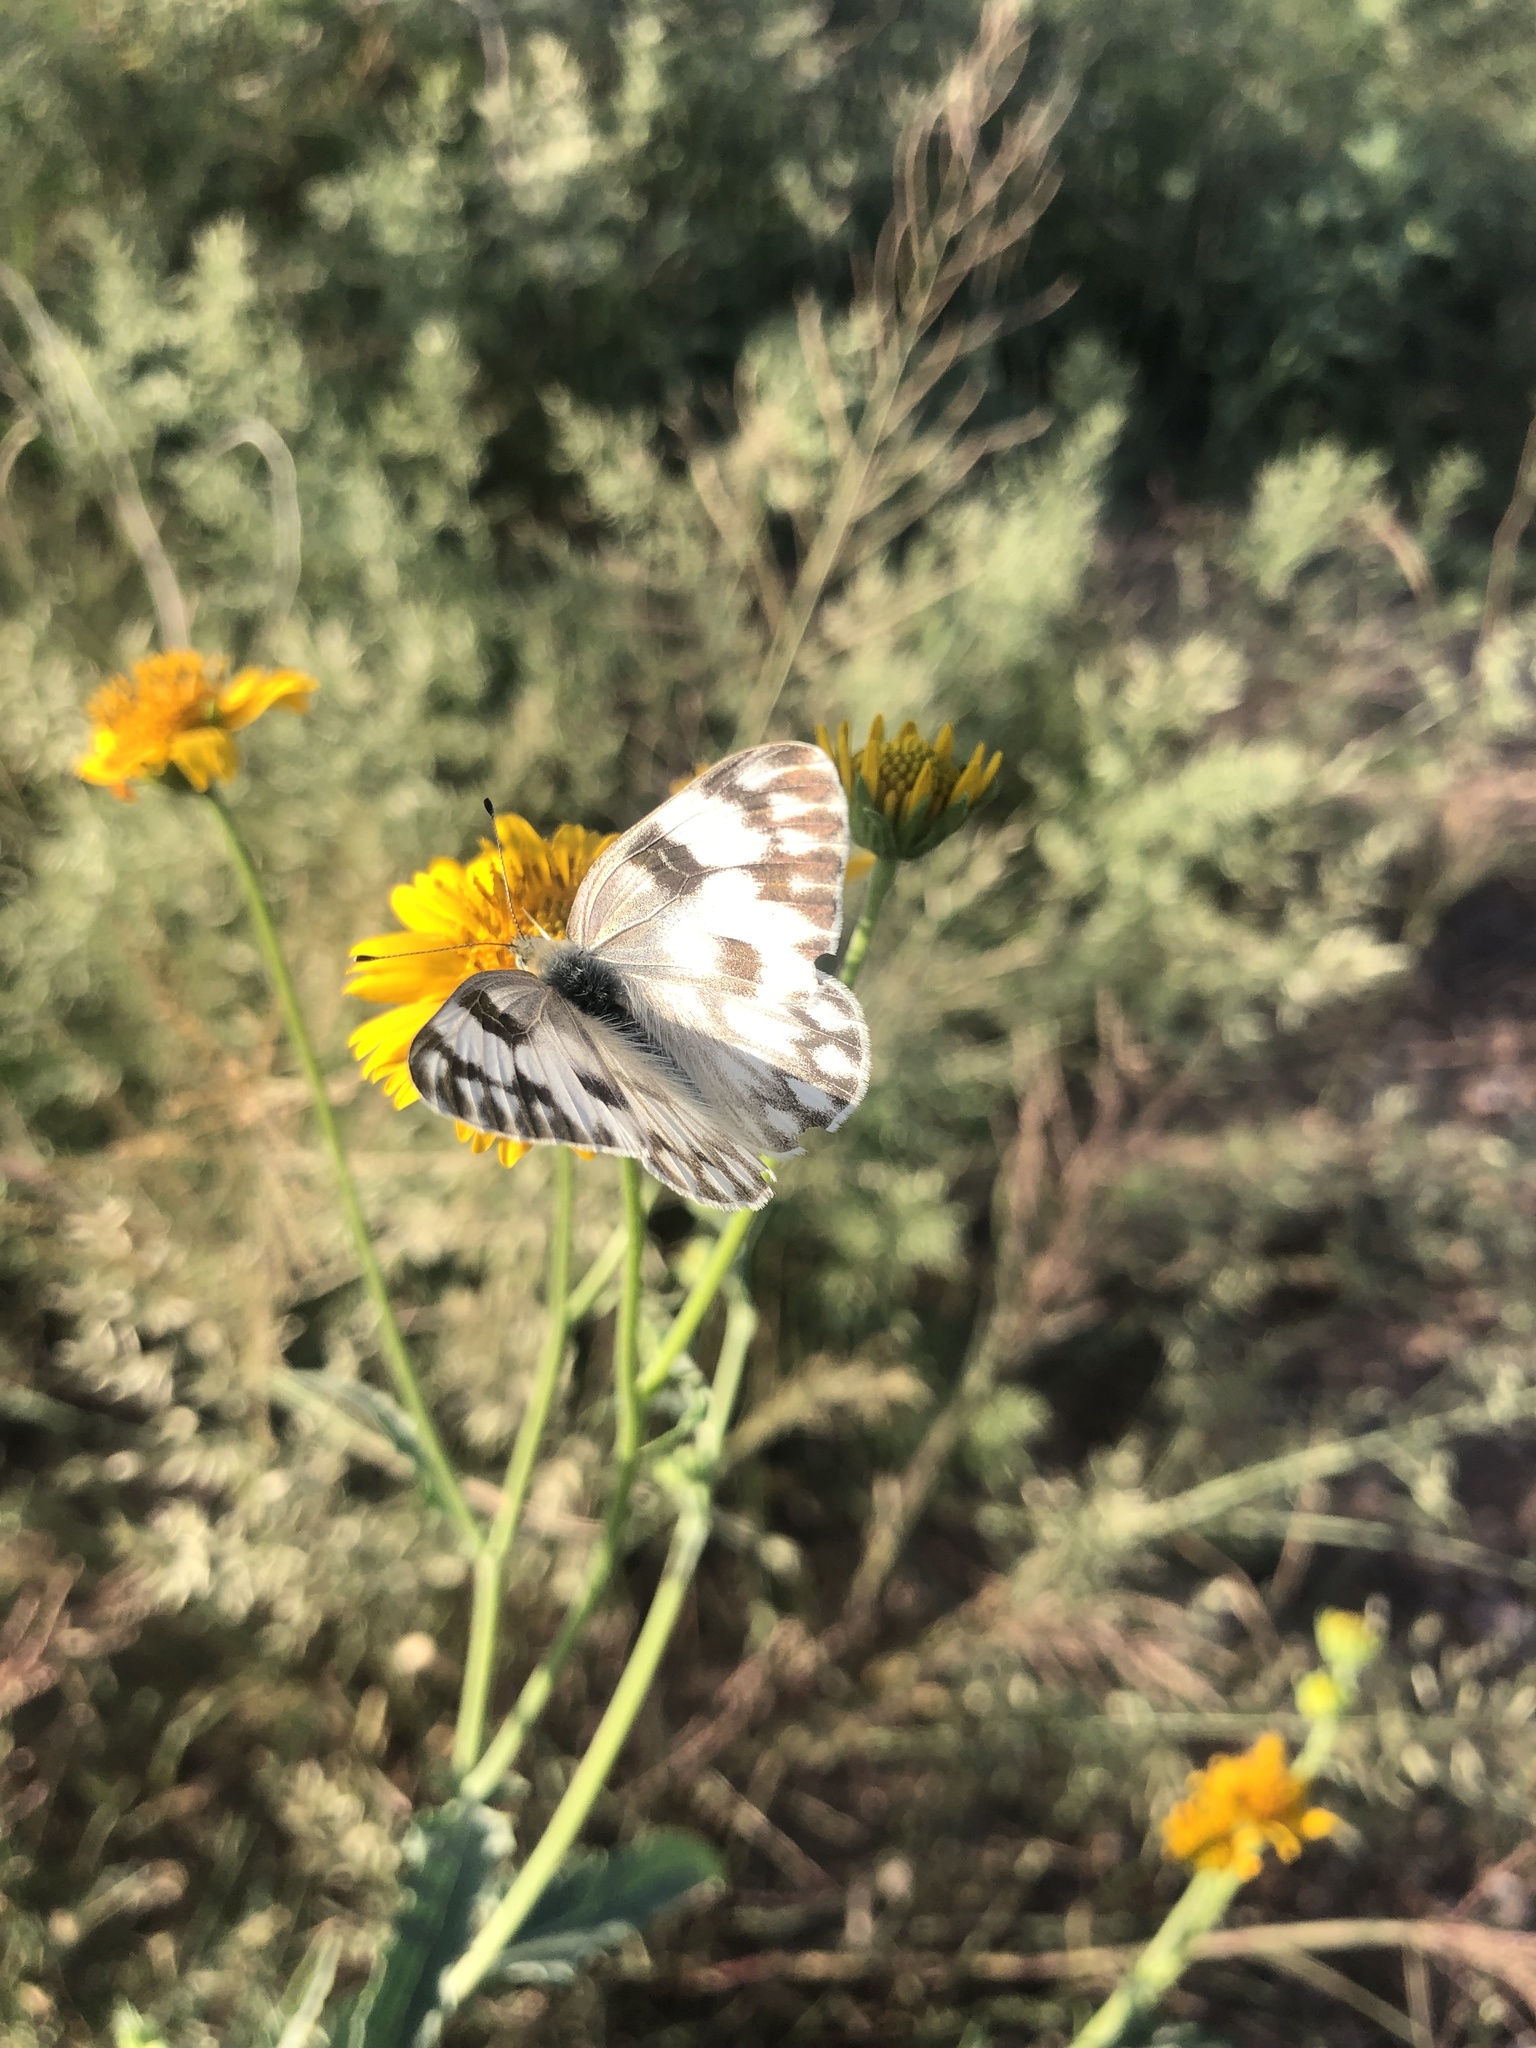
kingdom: Animalia
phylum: Arthropoda
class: Insecta
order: Lepidoptera
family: Pieridae
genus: Pontia
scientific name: Pontia protodice
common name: Checkered white
